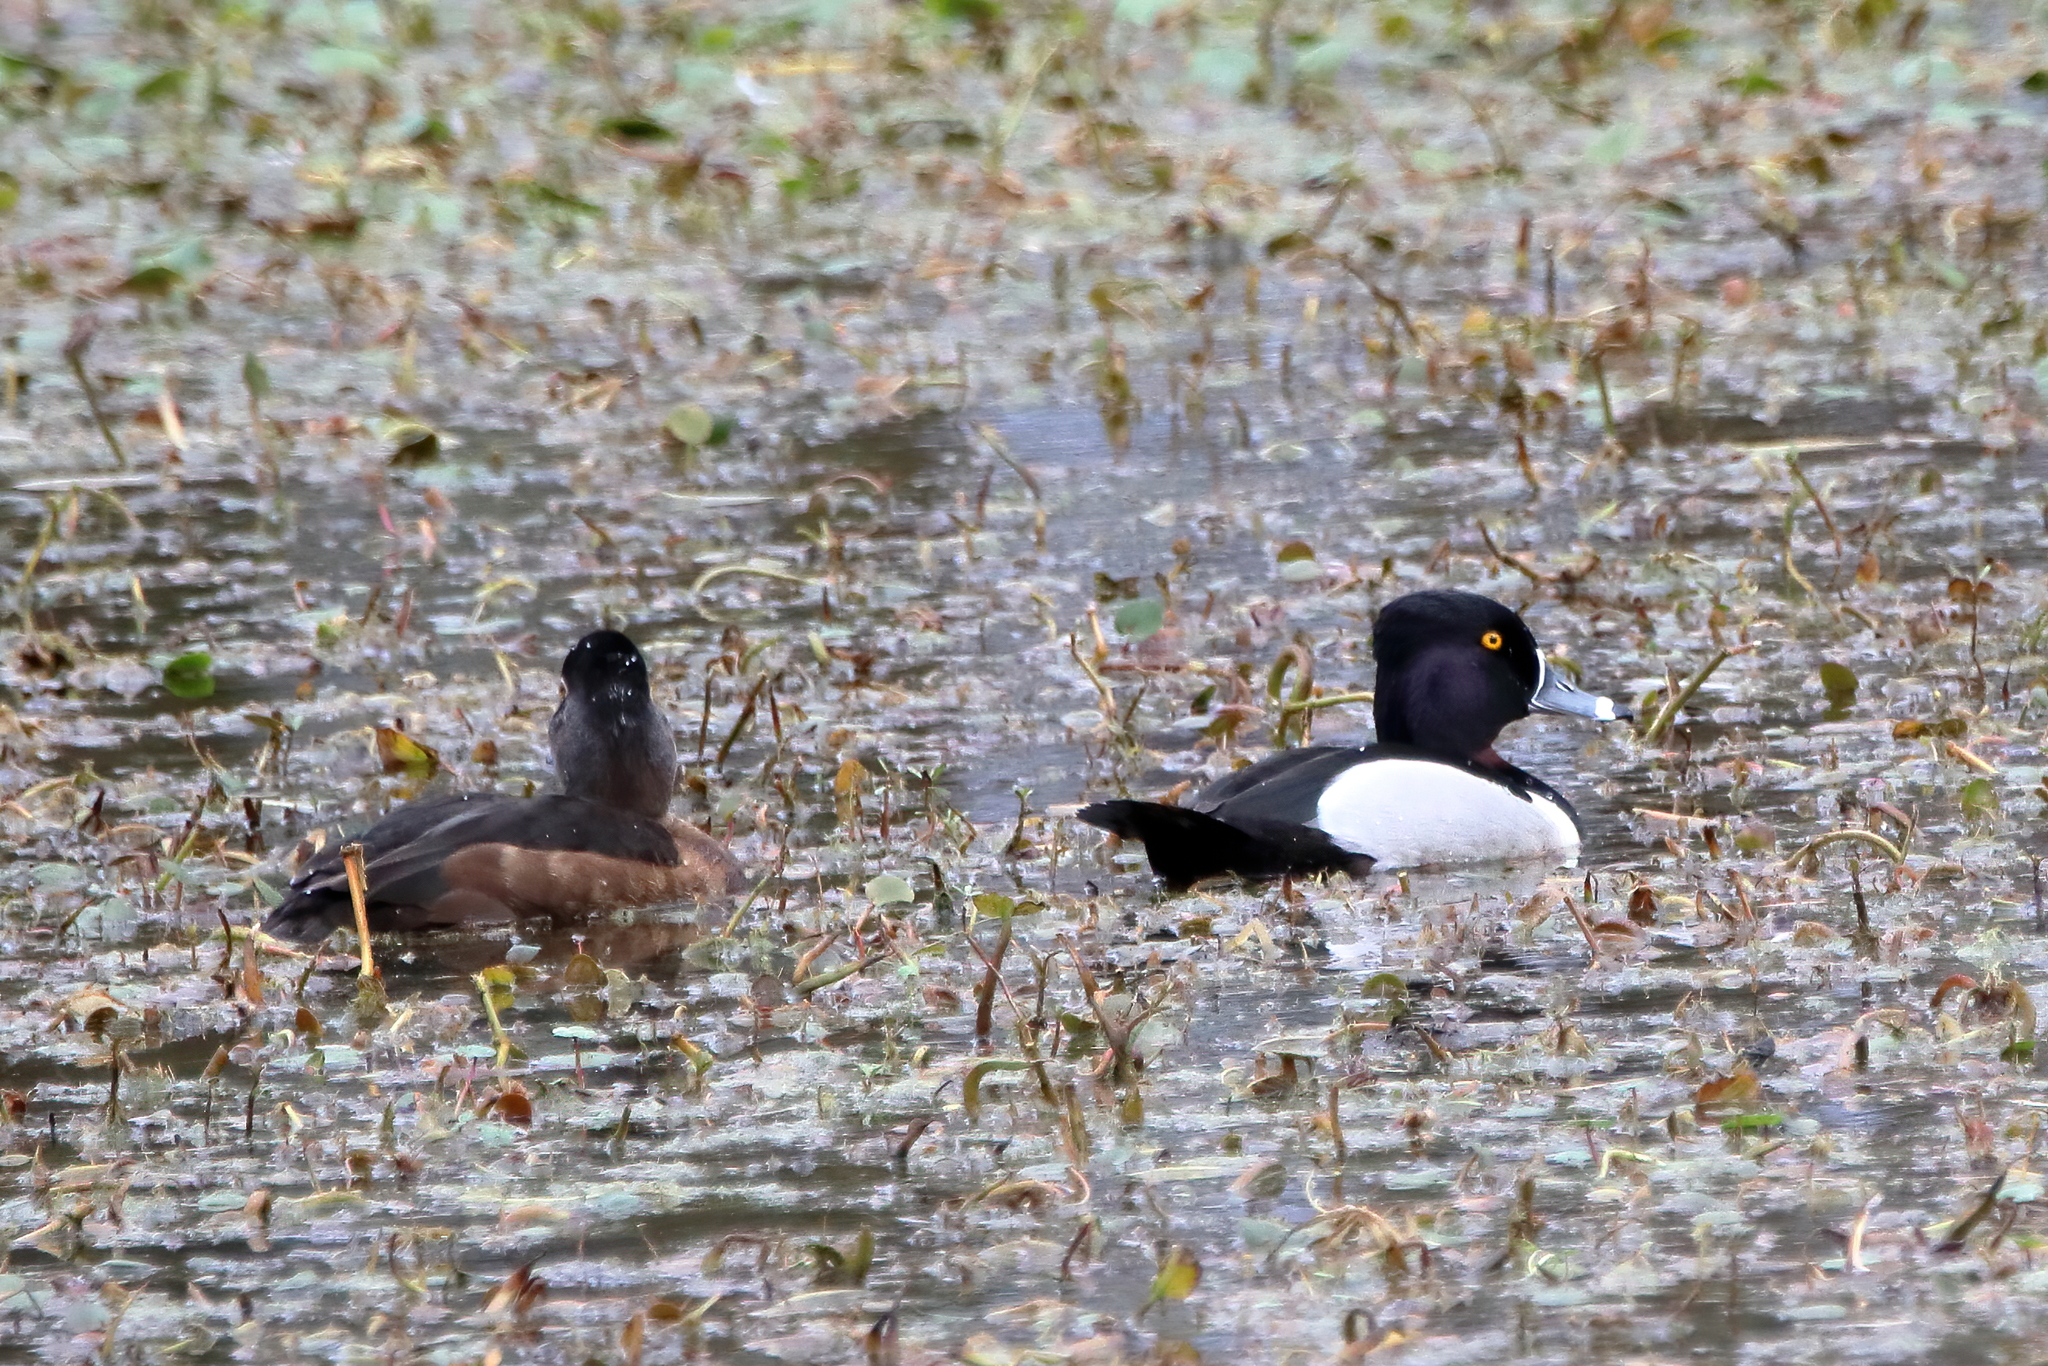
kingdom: Animalia
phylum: Chordata
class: Aves
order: Anseriformes
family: Anatidae
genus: Aythya
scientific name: Aythya collaris
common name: Ring-necked duck
